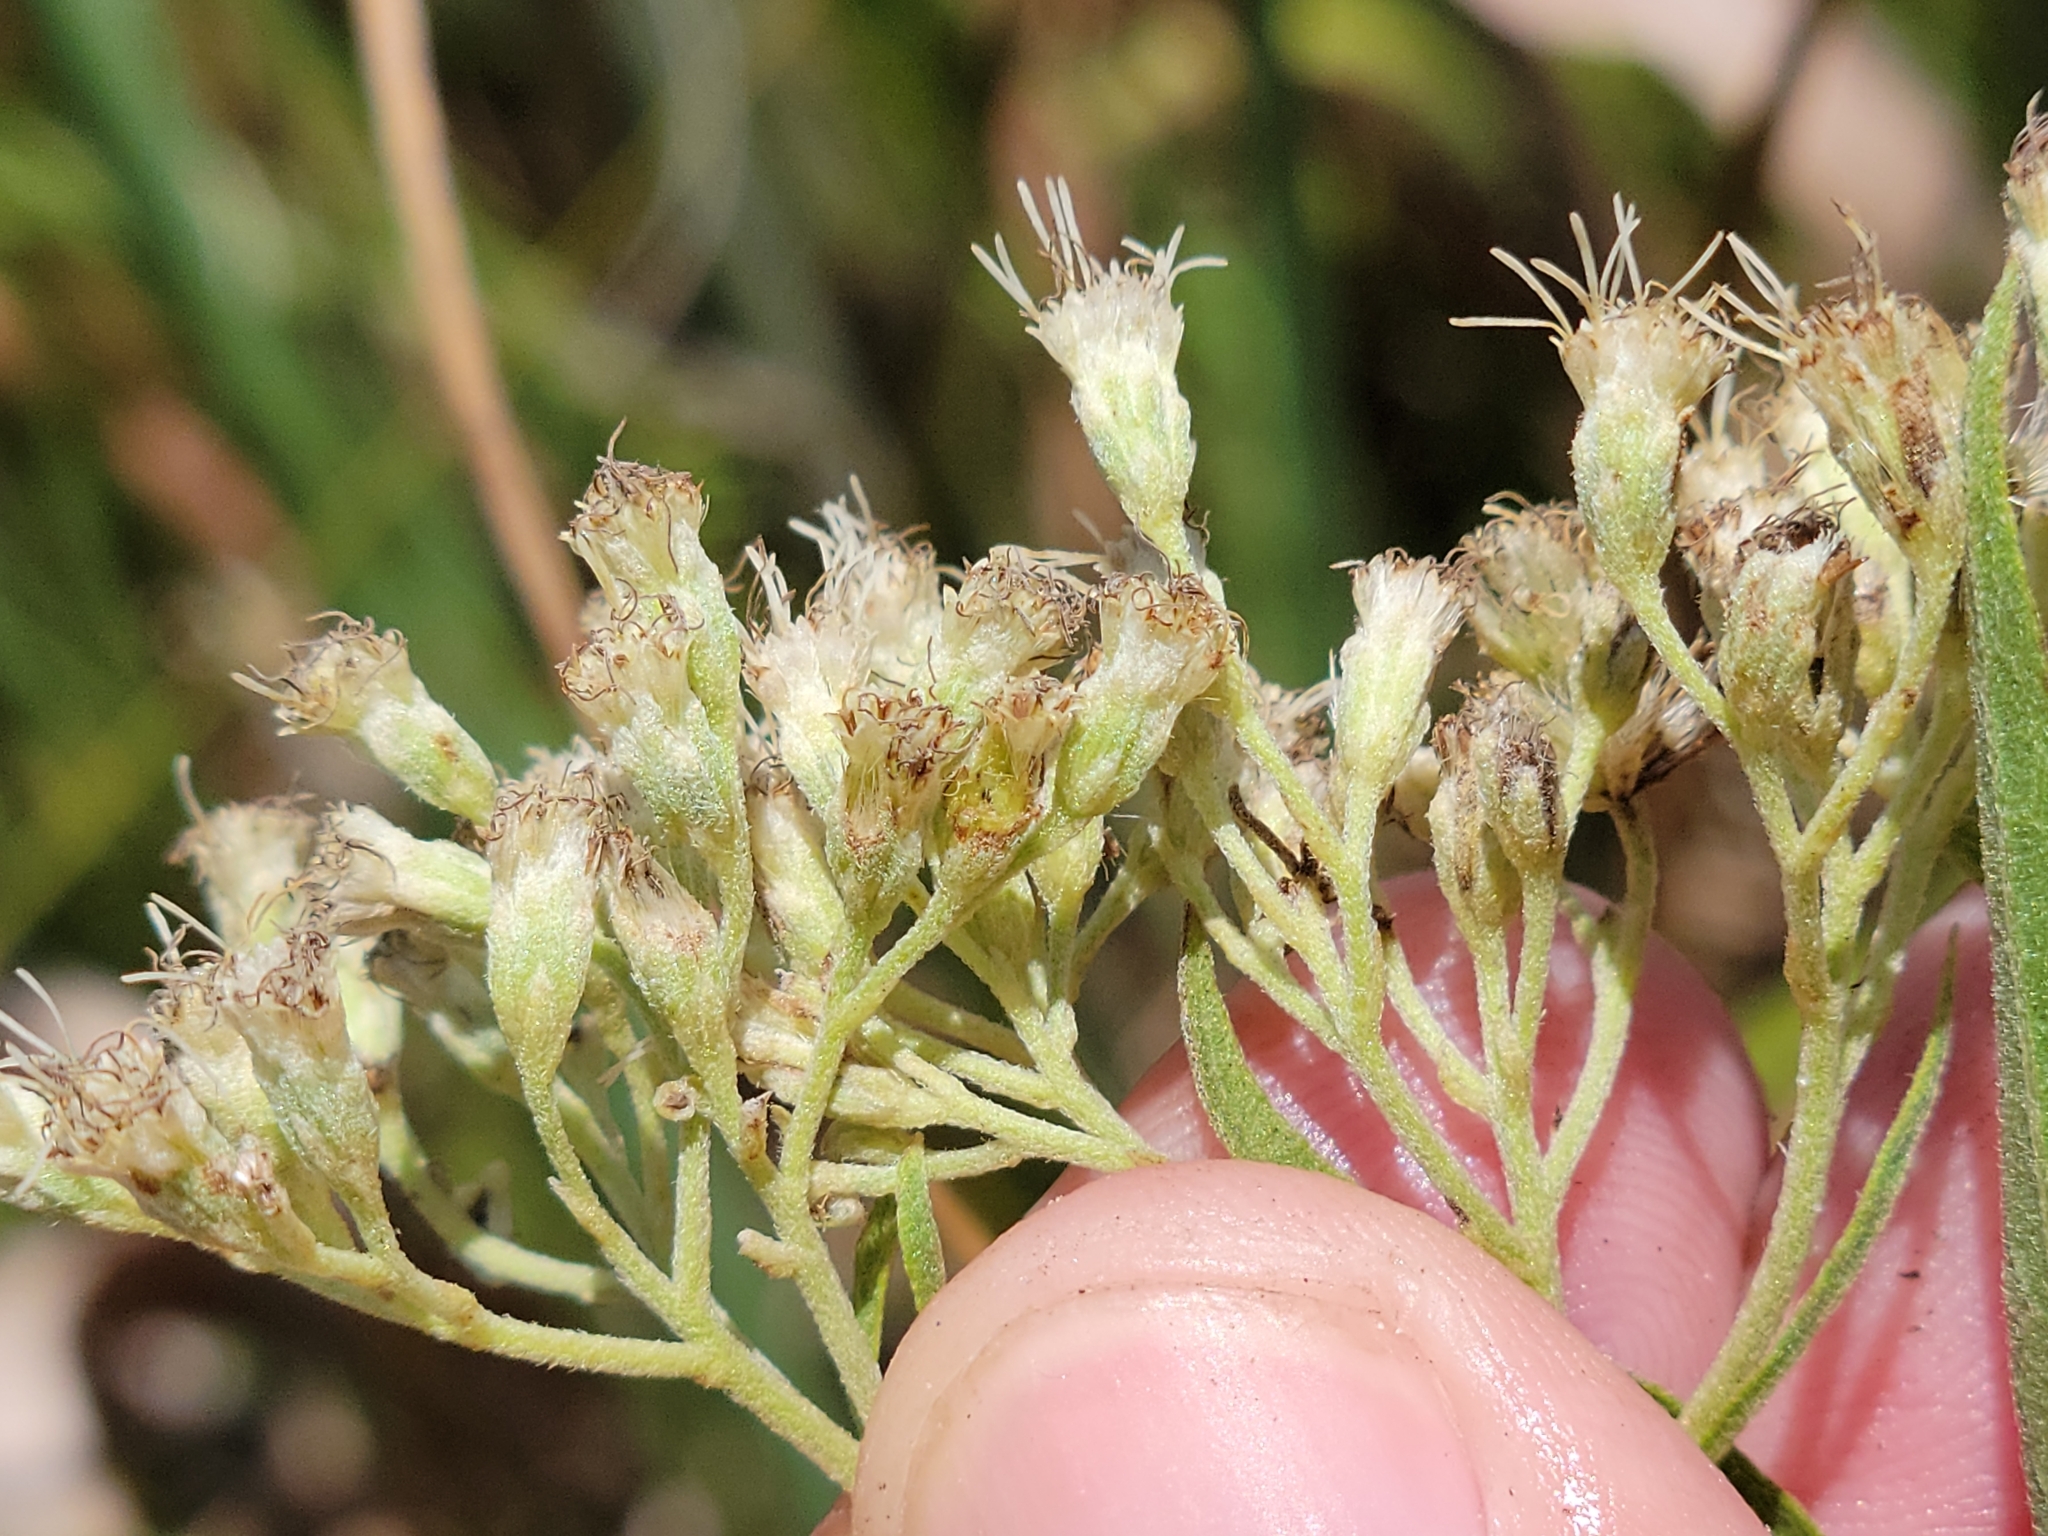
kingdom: Plantae
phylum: Tracheophyta
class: Magnoliopsida
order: Asterales
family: Asteraceae
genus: Eupatorium
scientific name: Eupatorium serotinum
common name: Late boneset
